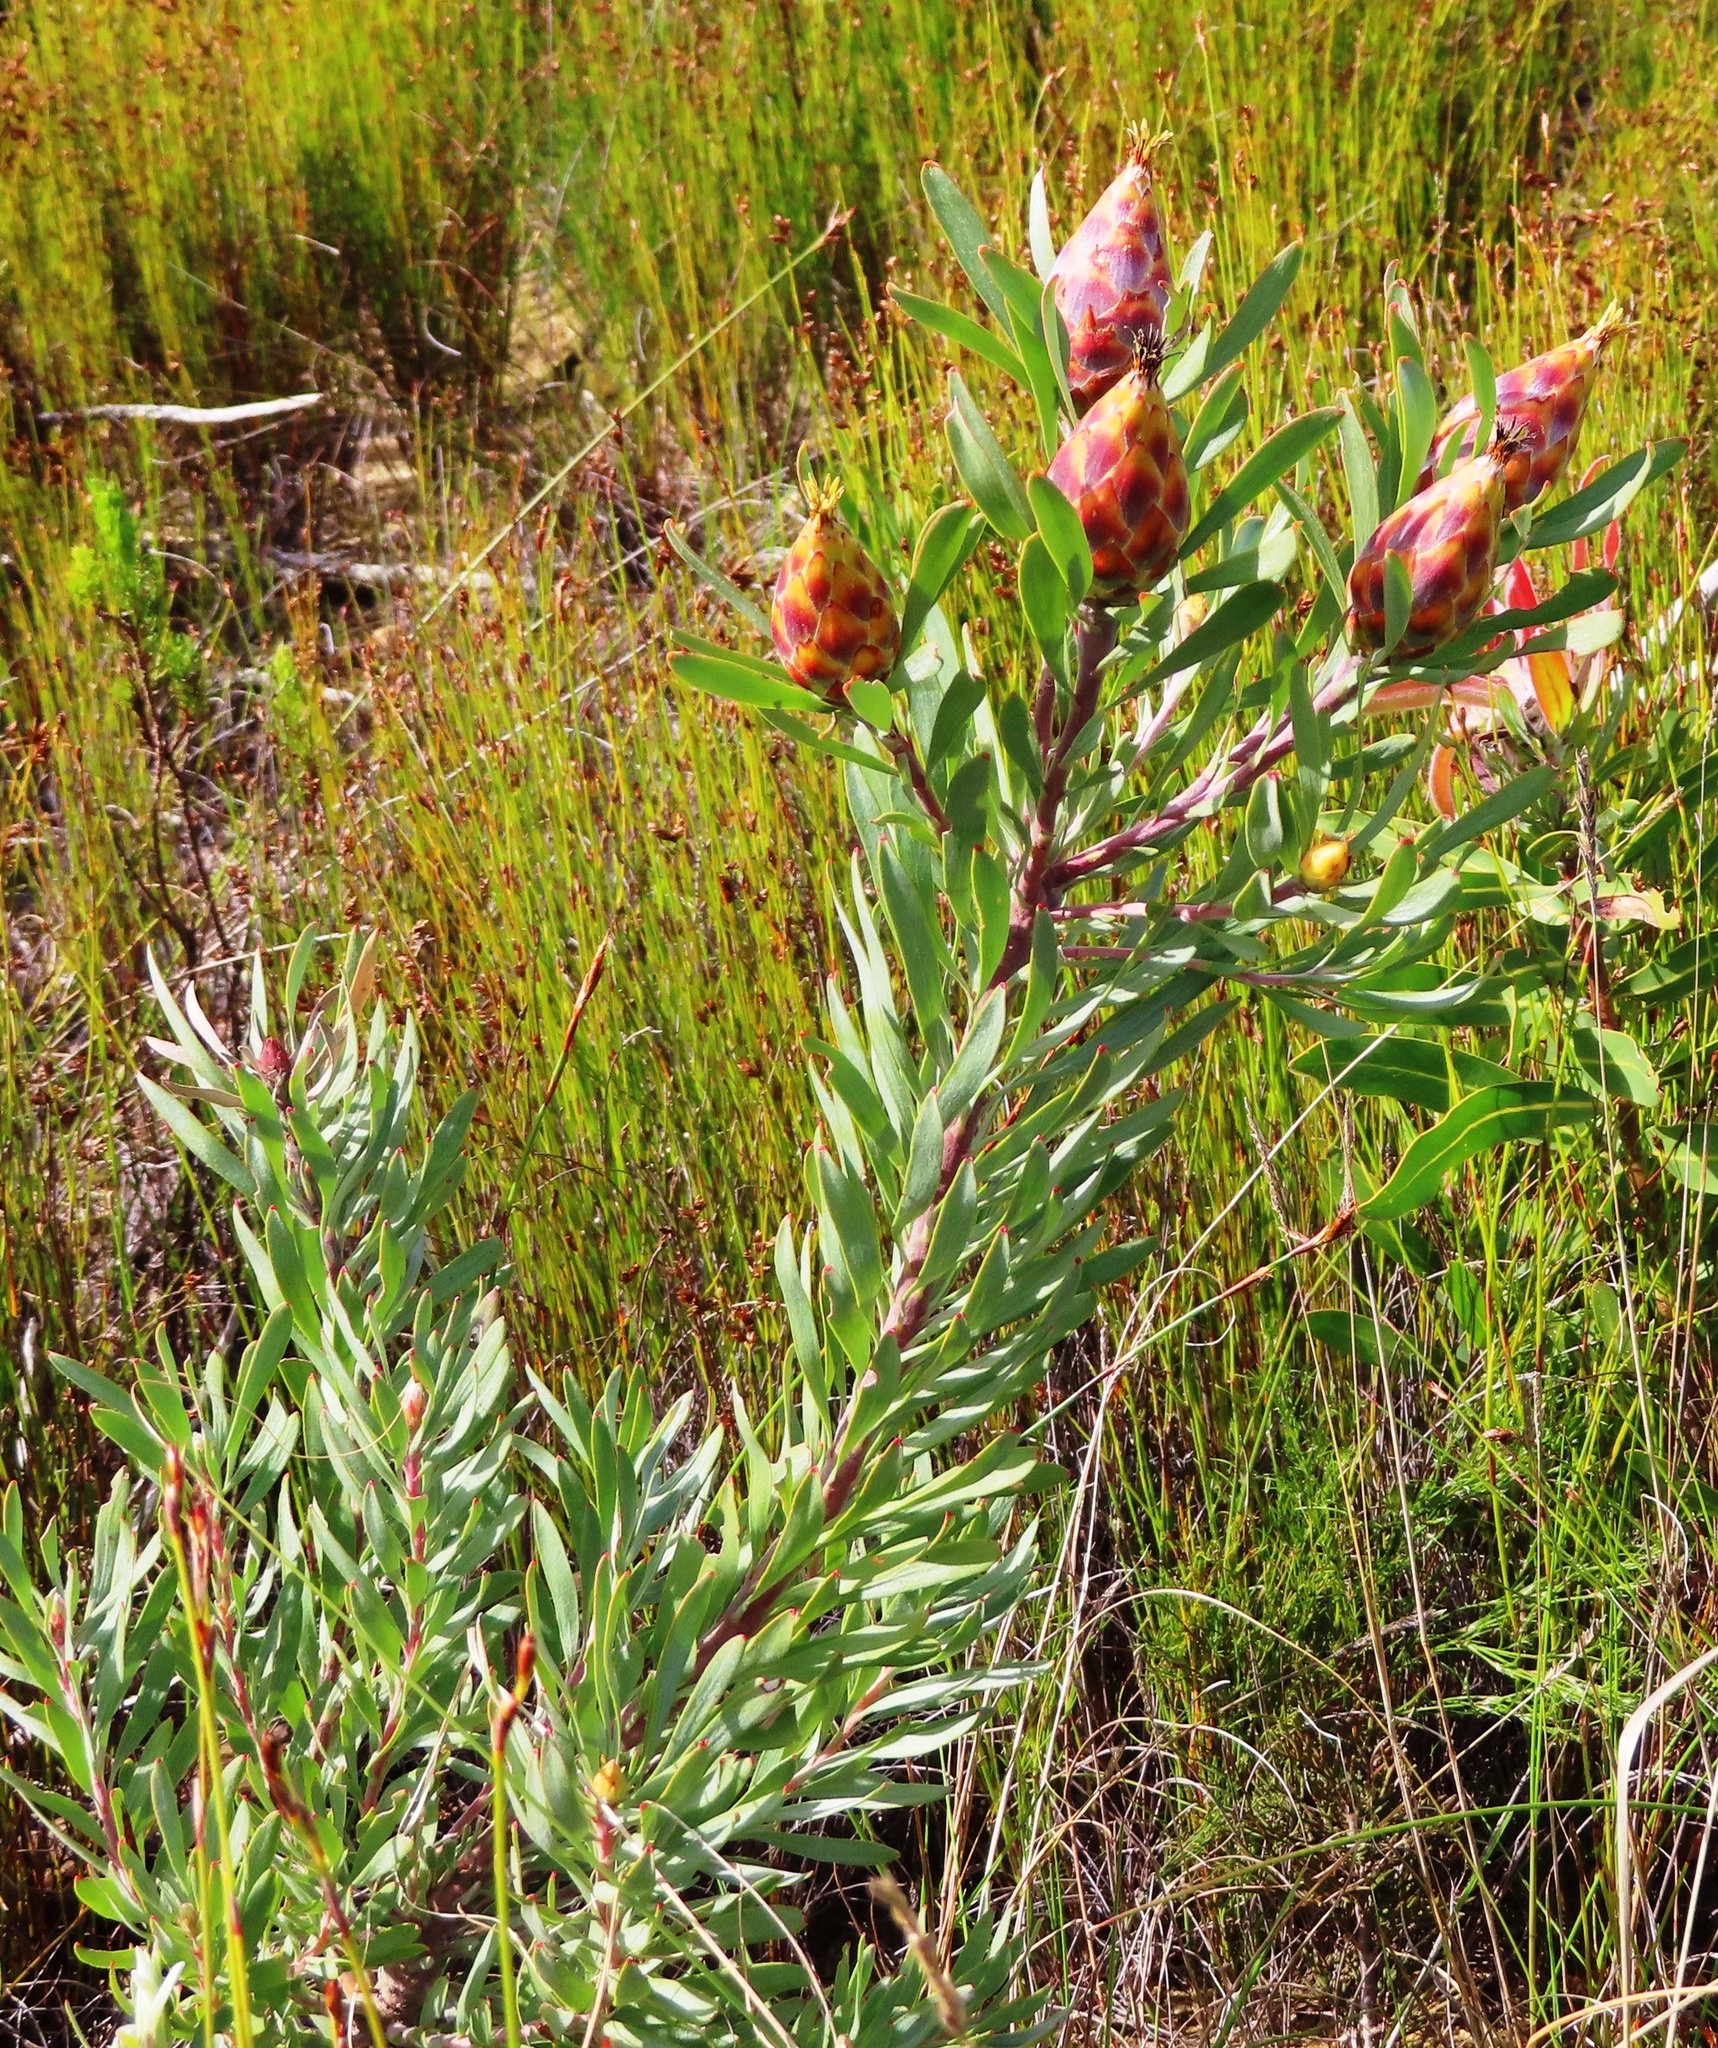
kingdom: Plantae
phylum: Tracheophyta
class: Magnoliopsida
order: Proteales
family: Proteaceae
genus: Leucadendron
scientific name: Leucadendron rubrum
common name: Spinning top
